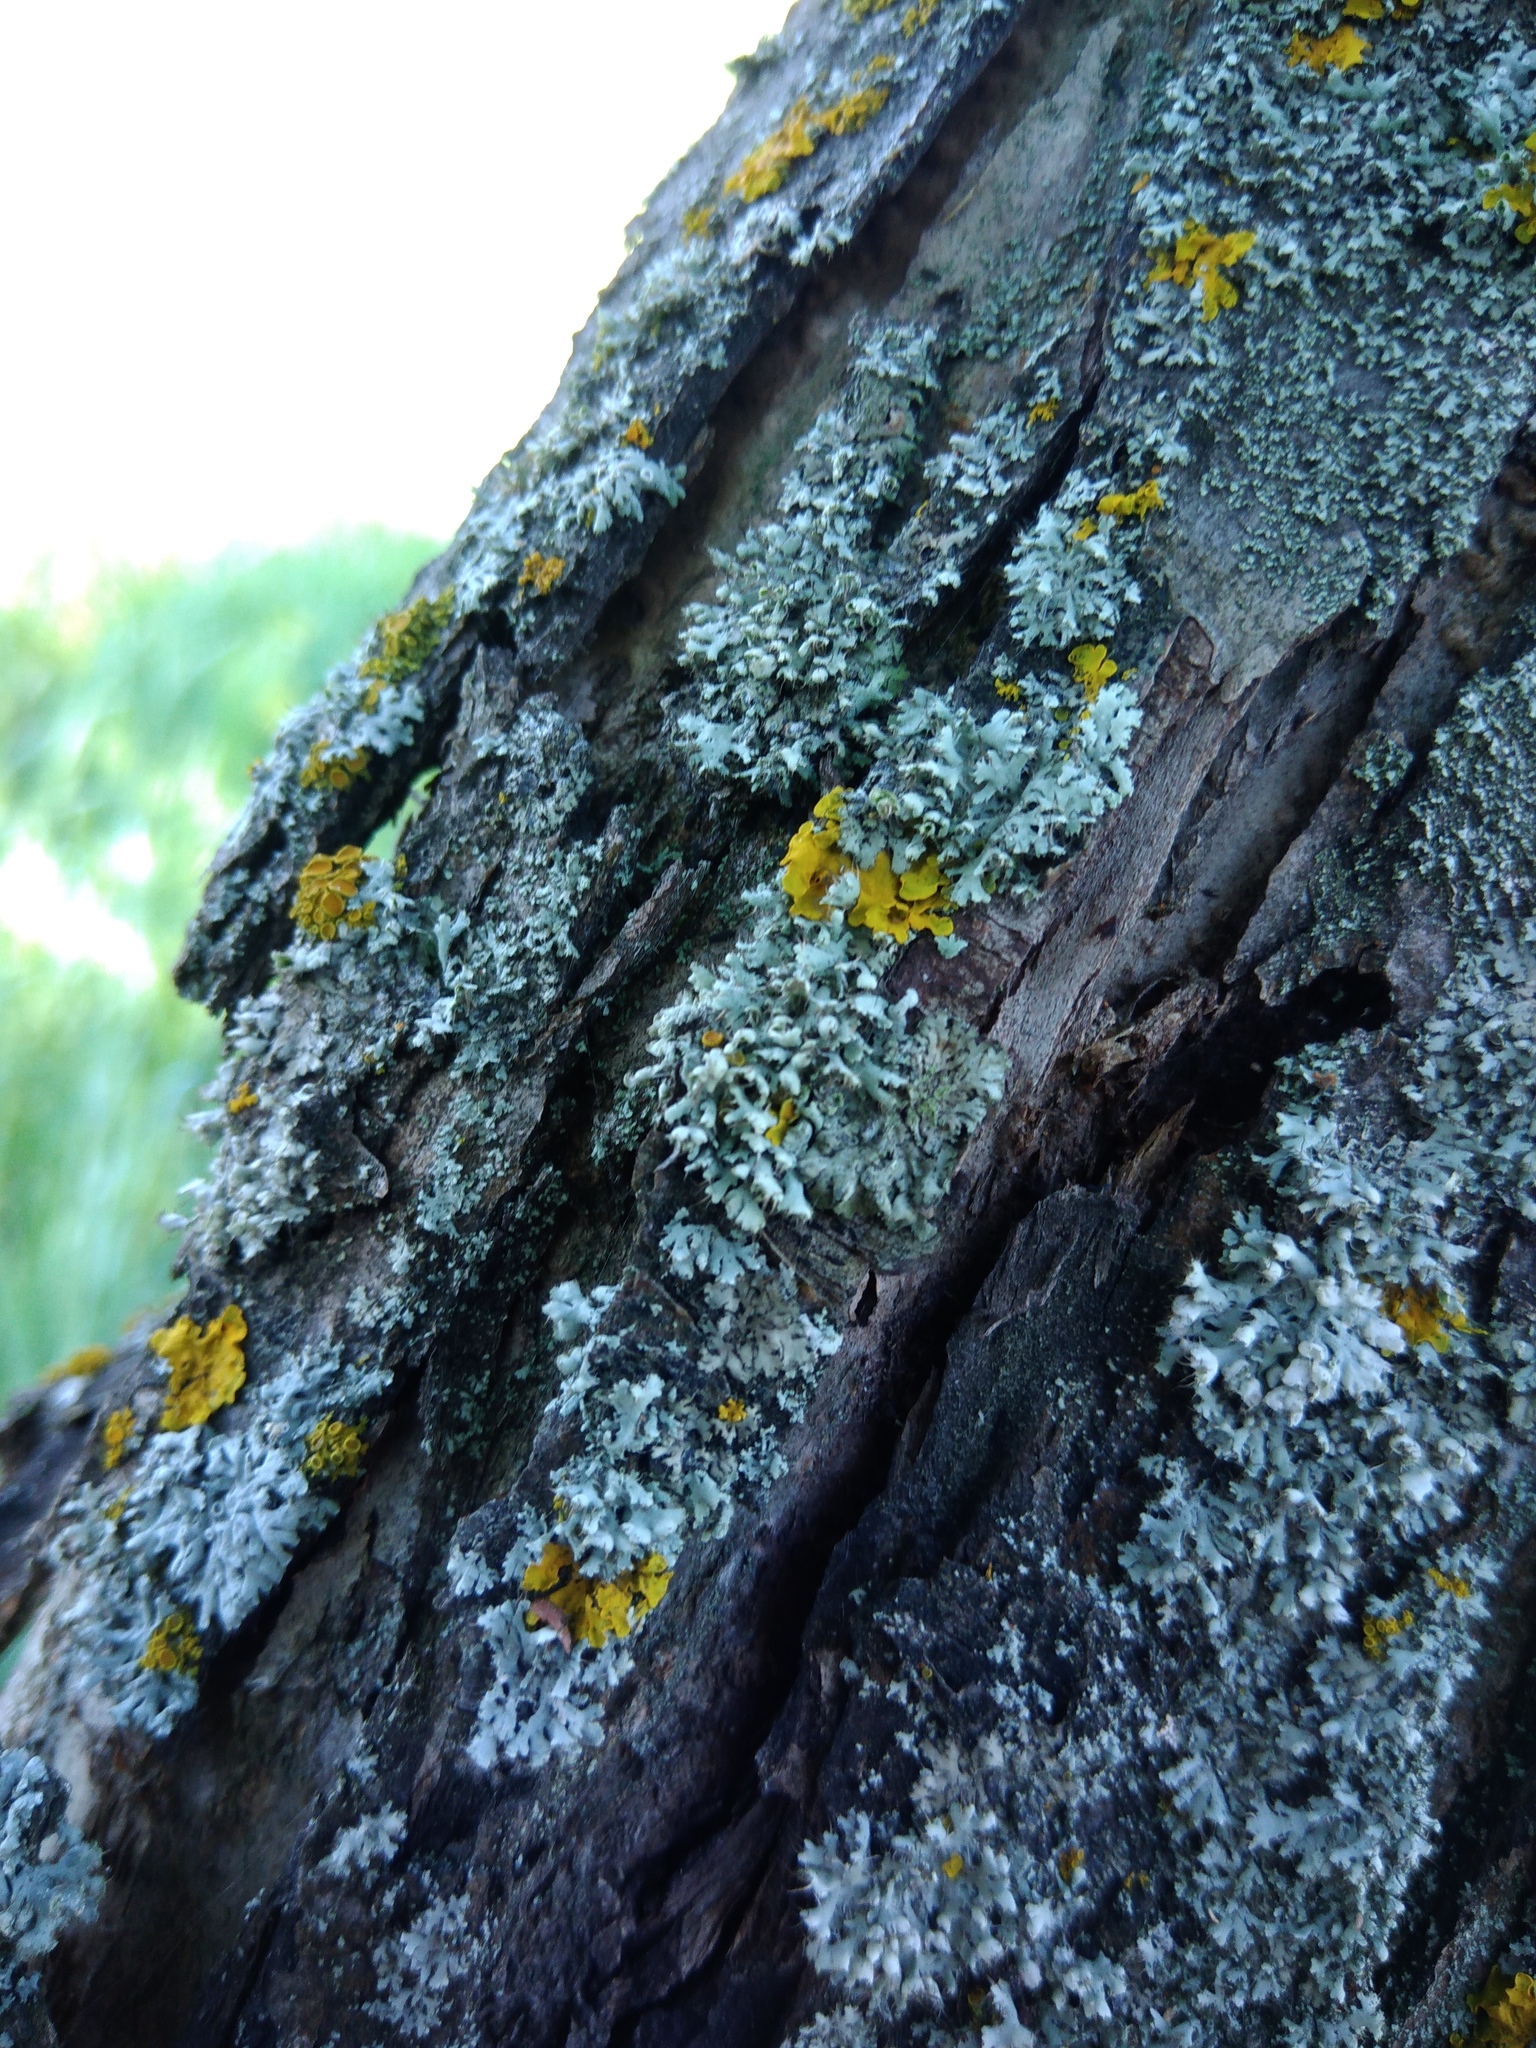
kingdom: Fungi
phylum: Ascomycota
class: Lecanoromycetes
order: Caliciales
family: Physciaceae
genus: Physcia
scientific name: Physcia adscendens
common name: Hooded rosette lichen
